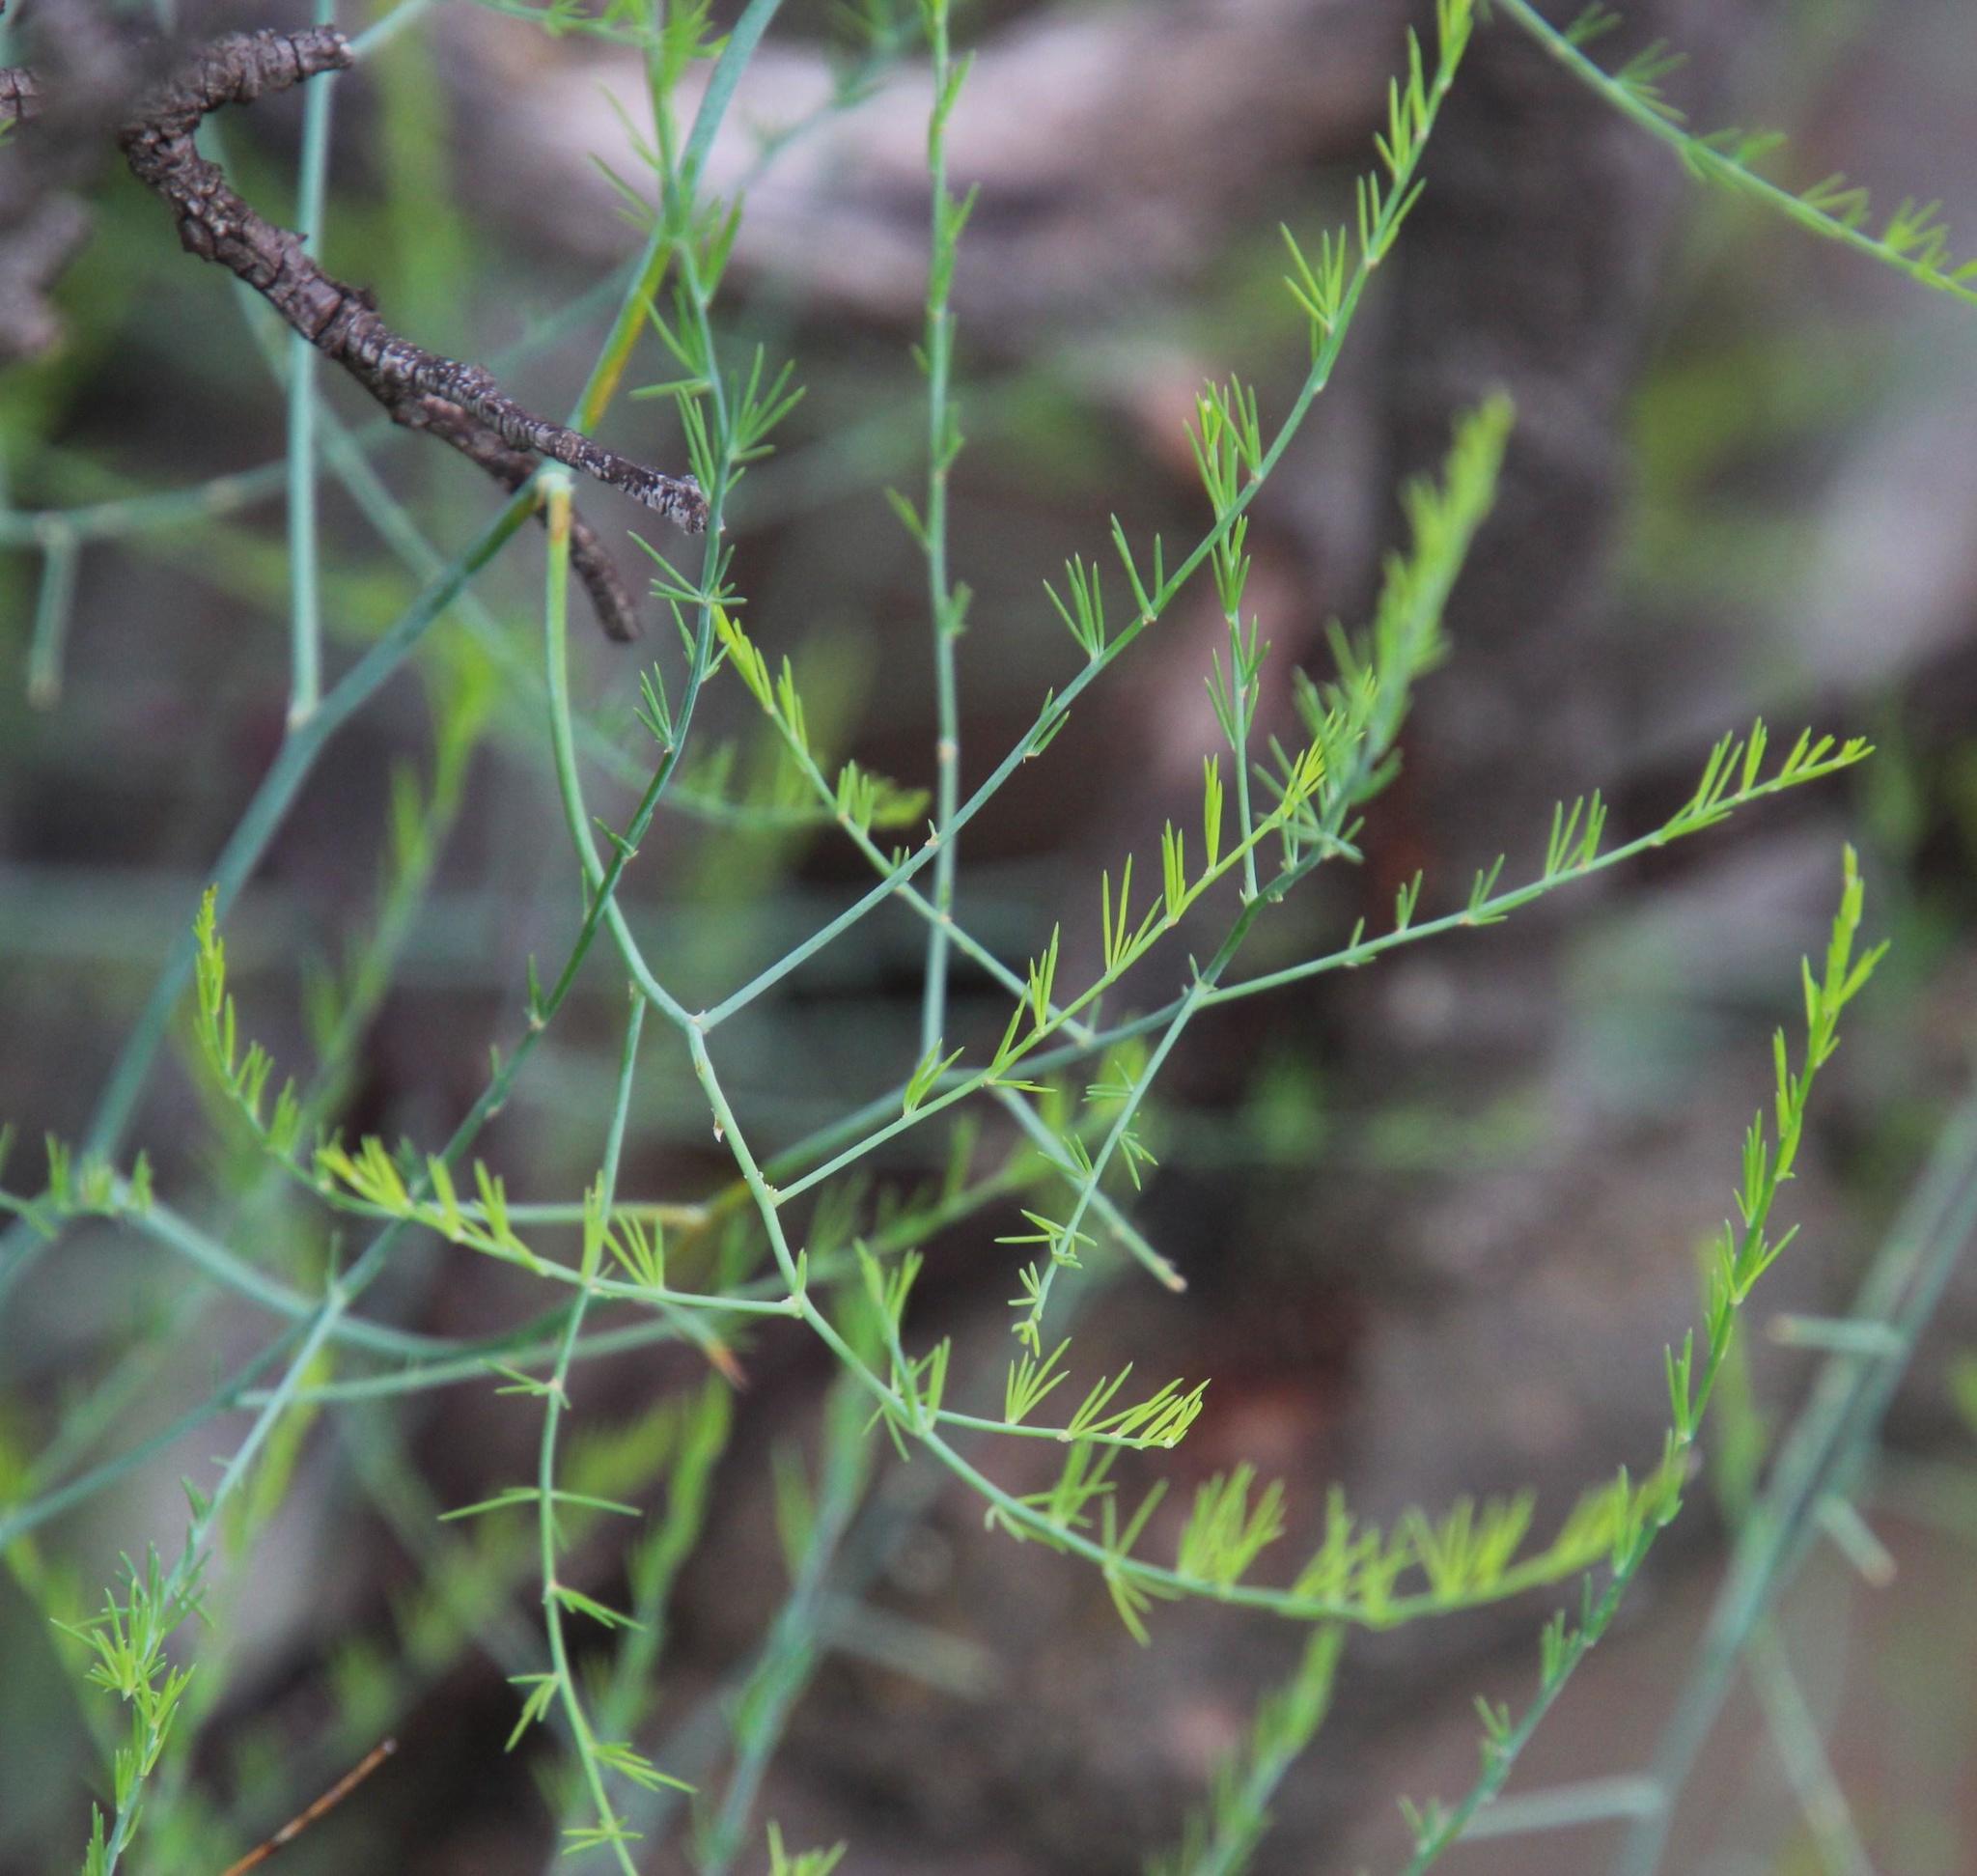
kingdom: Plantae
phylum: Tracheophyta
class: Liliopsida
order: Asparagales
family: Asparagaceae
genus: Asparagus
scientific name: Asparagus denudatus
